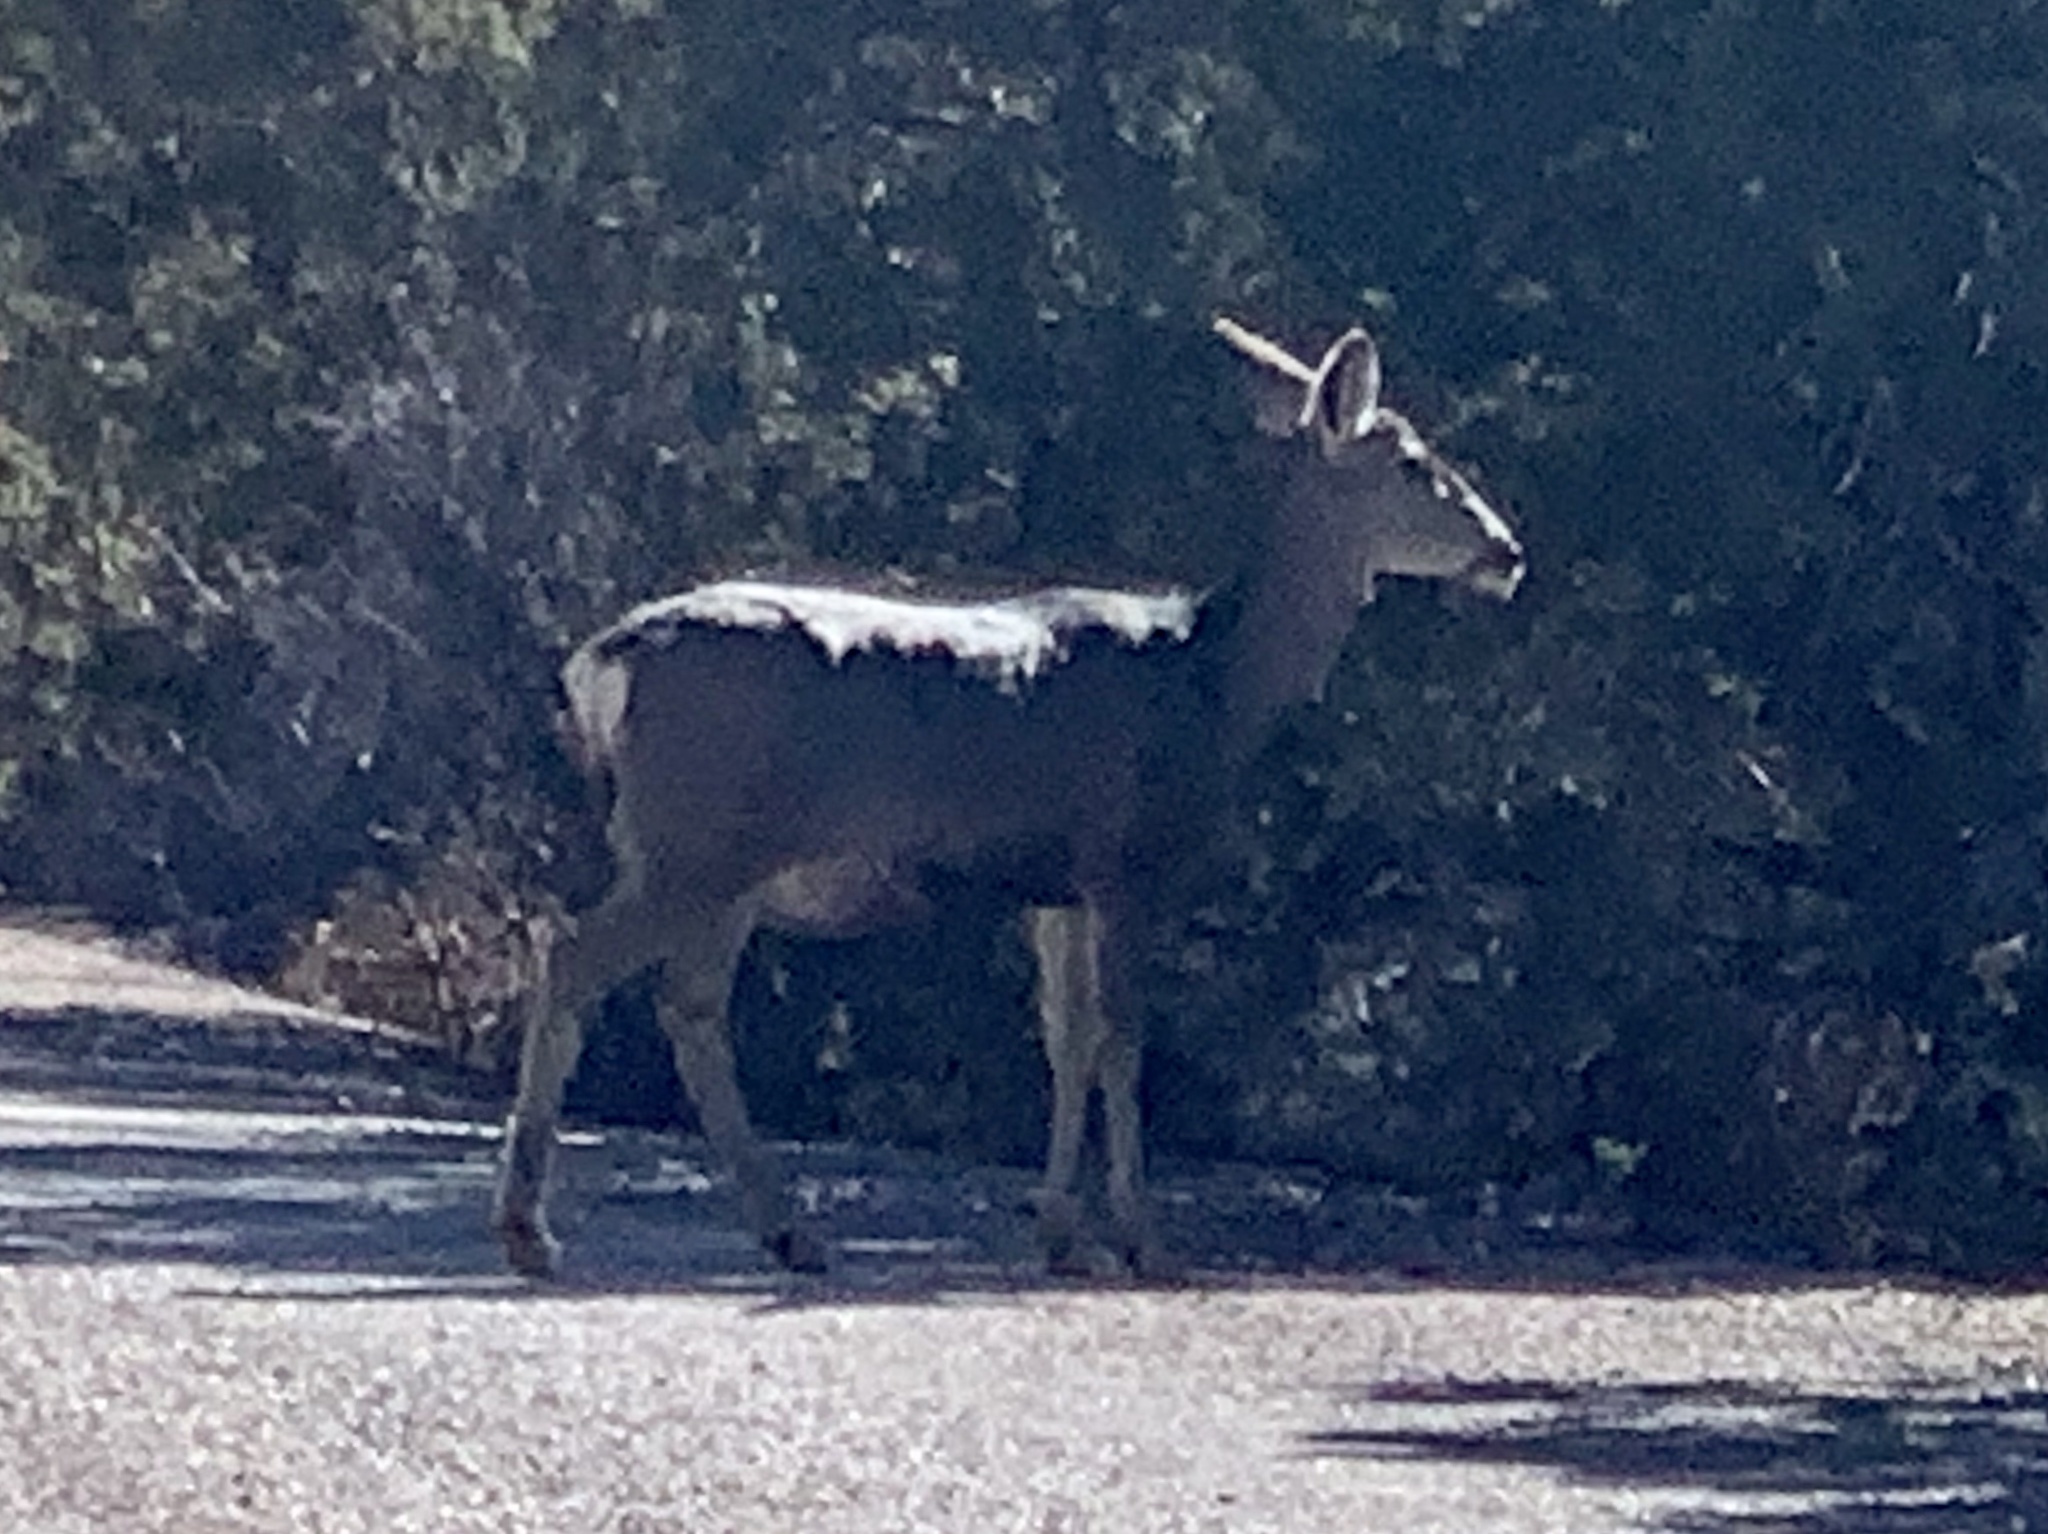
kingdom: Animalia
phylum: Chordata
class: Mammalia
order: Artiodactyla
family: Cervidae
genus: Odocoileus
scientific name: Odocoileus hemionus
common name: Mule deer
